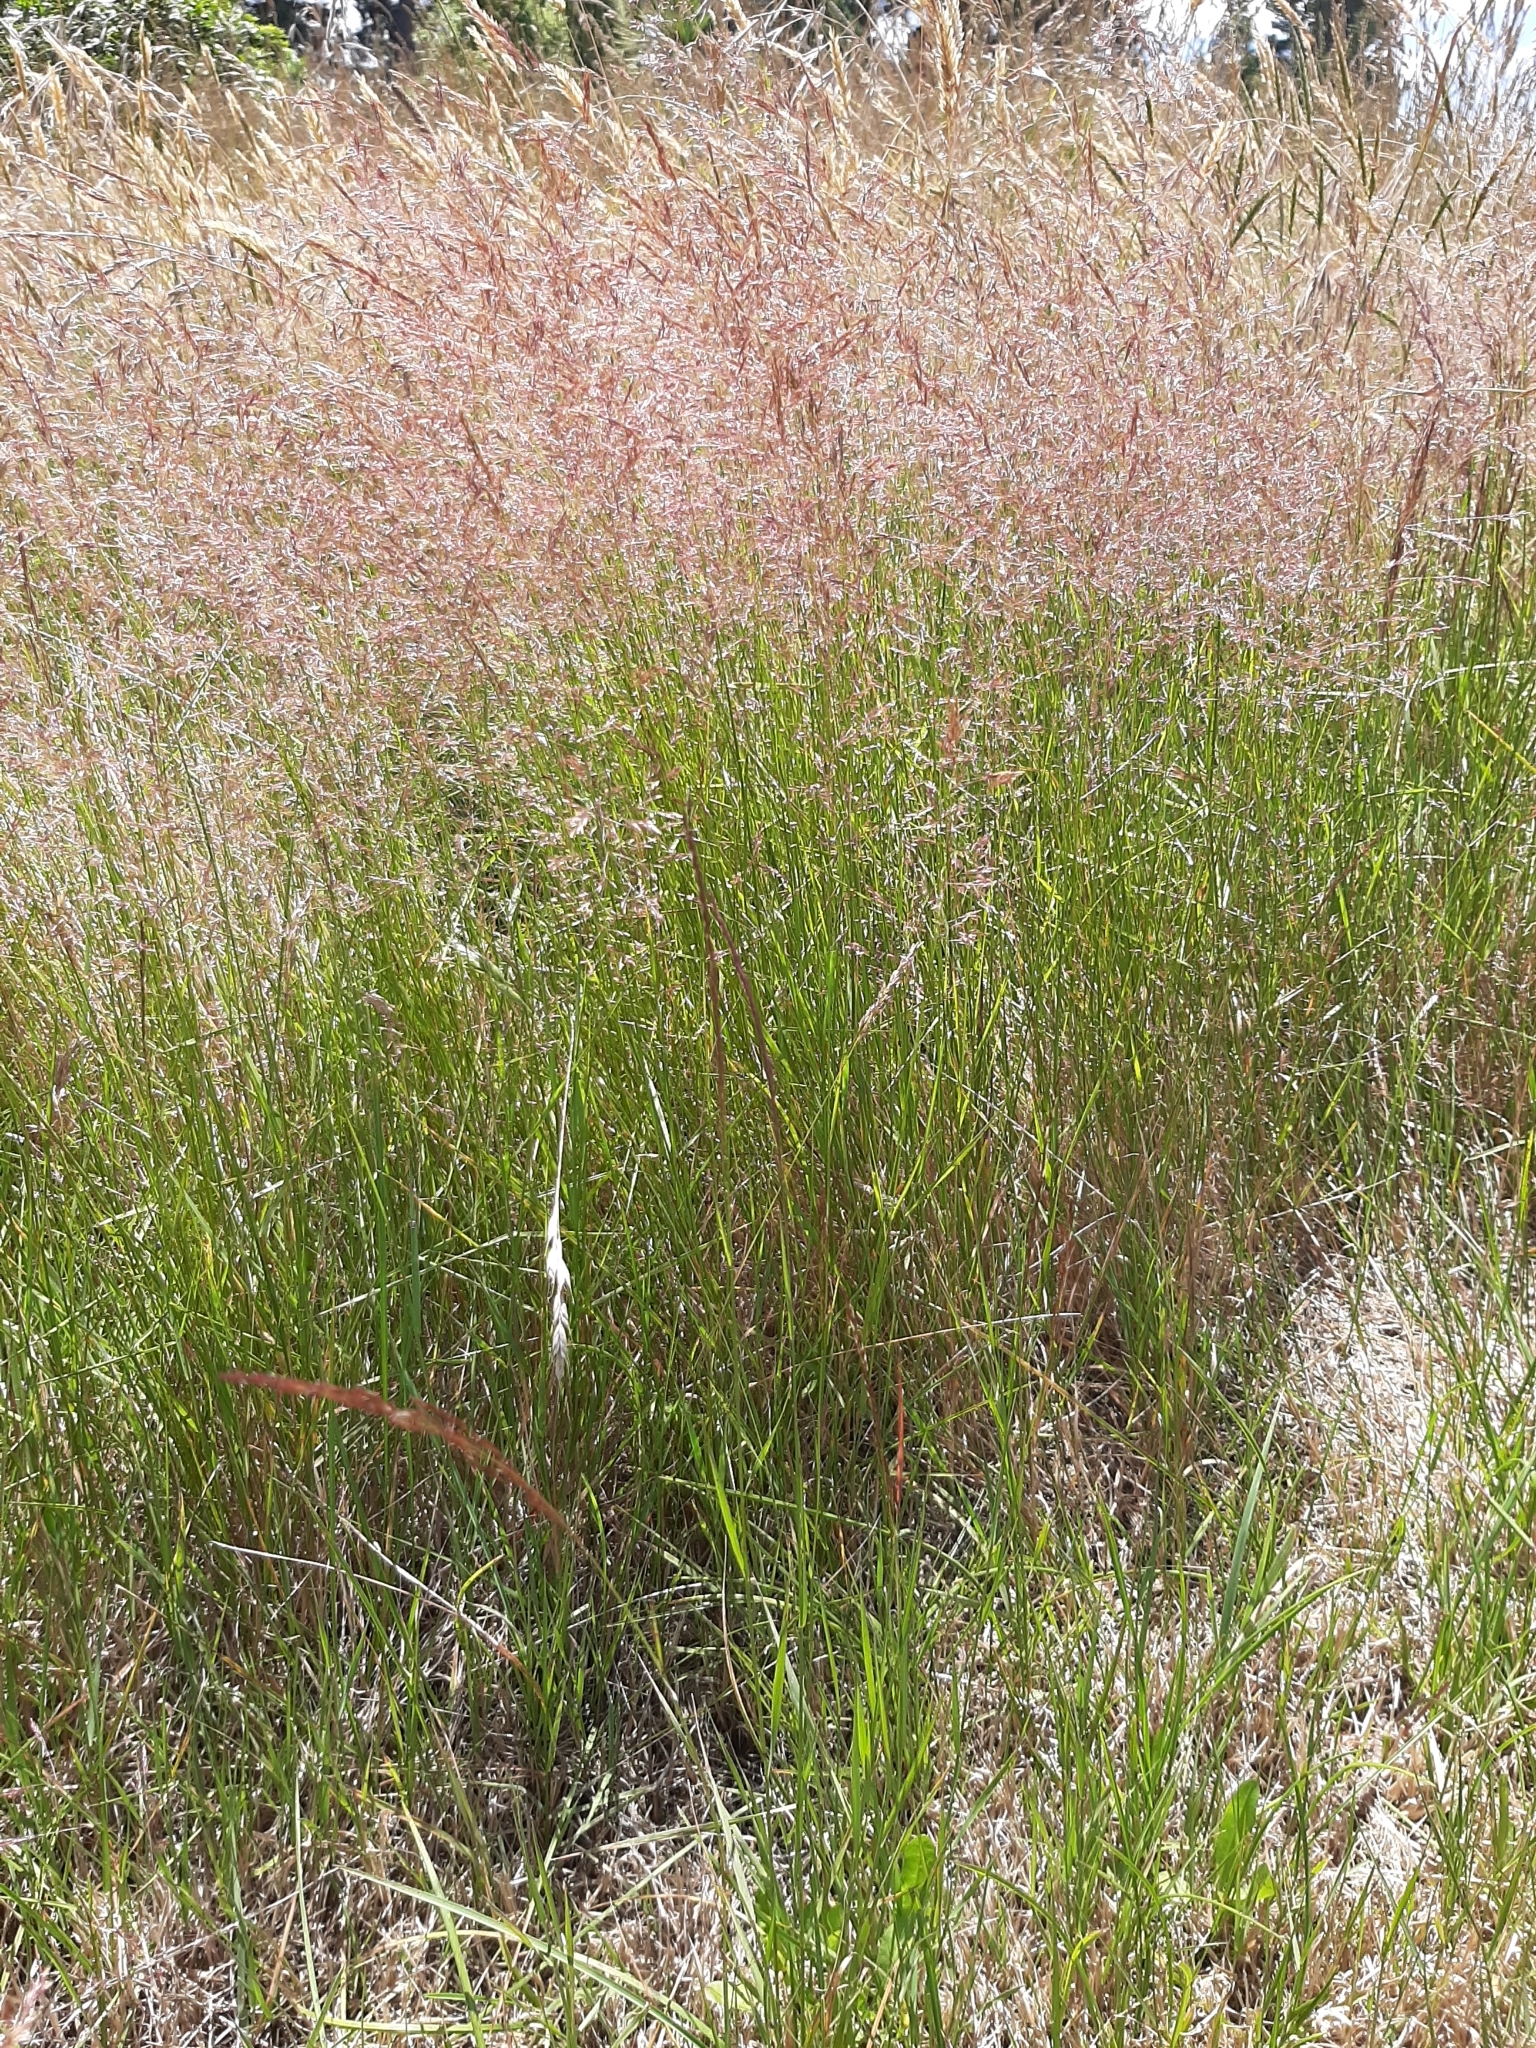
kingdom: Plantae
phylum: Tracheophyta
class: Liliopsida
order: Poales
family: Poaceae
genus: Agrostis
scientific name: Agrostis capillaris
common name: Colonial bentgrass
